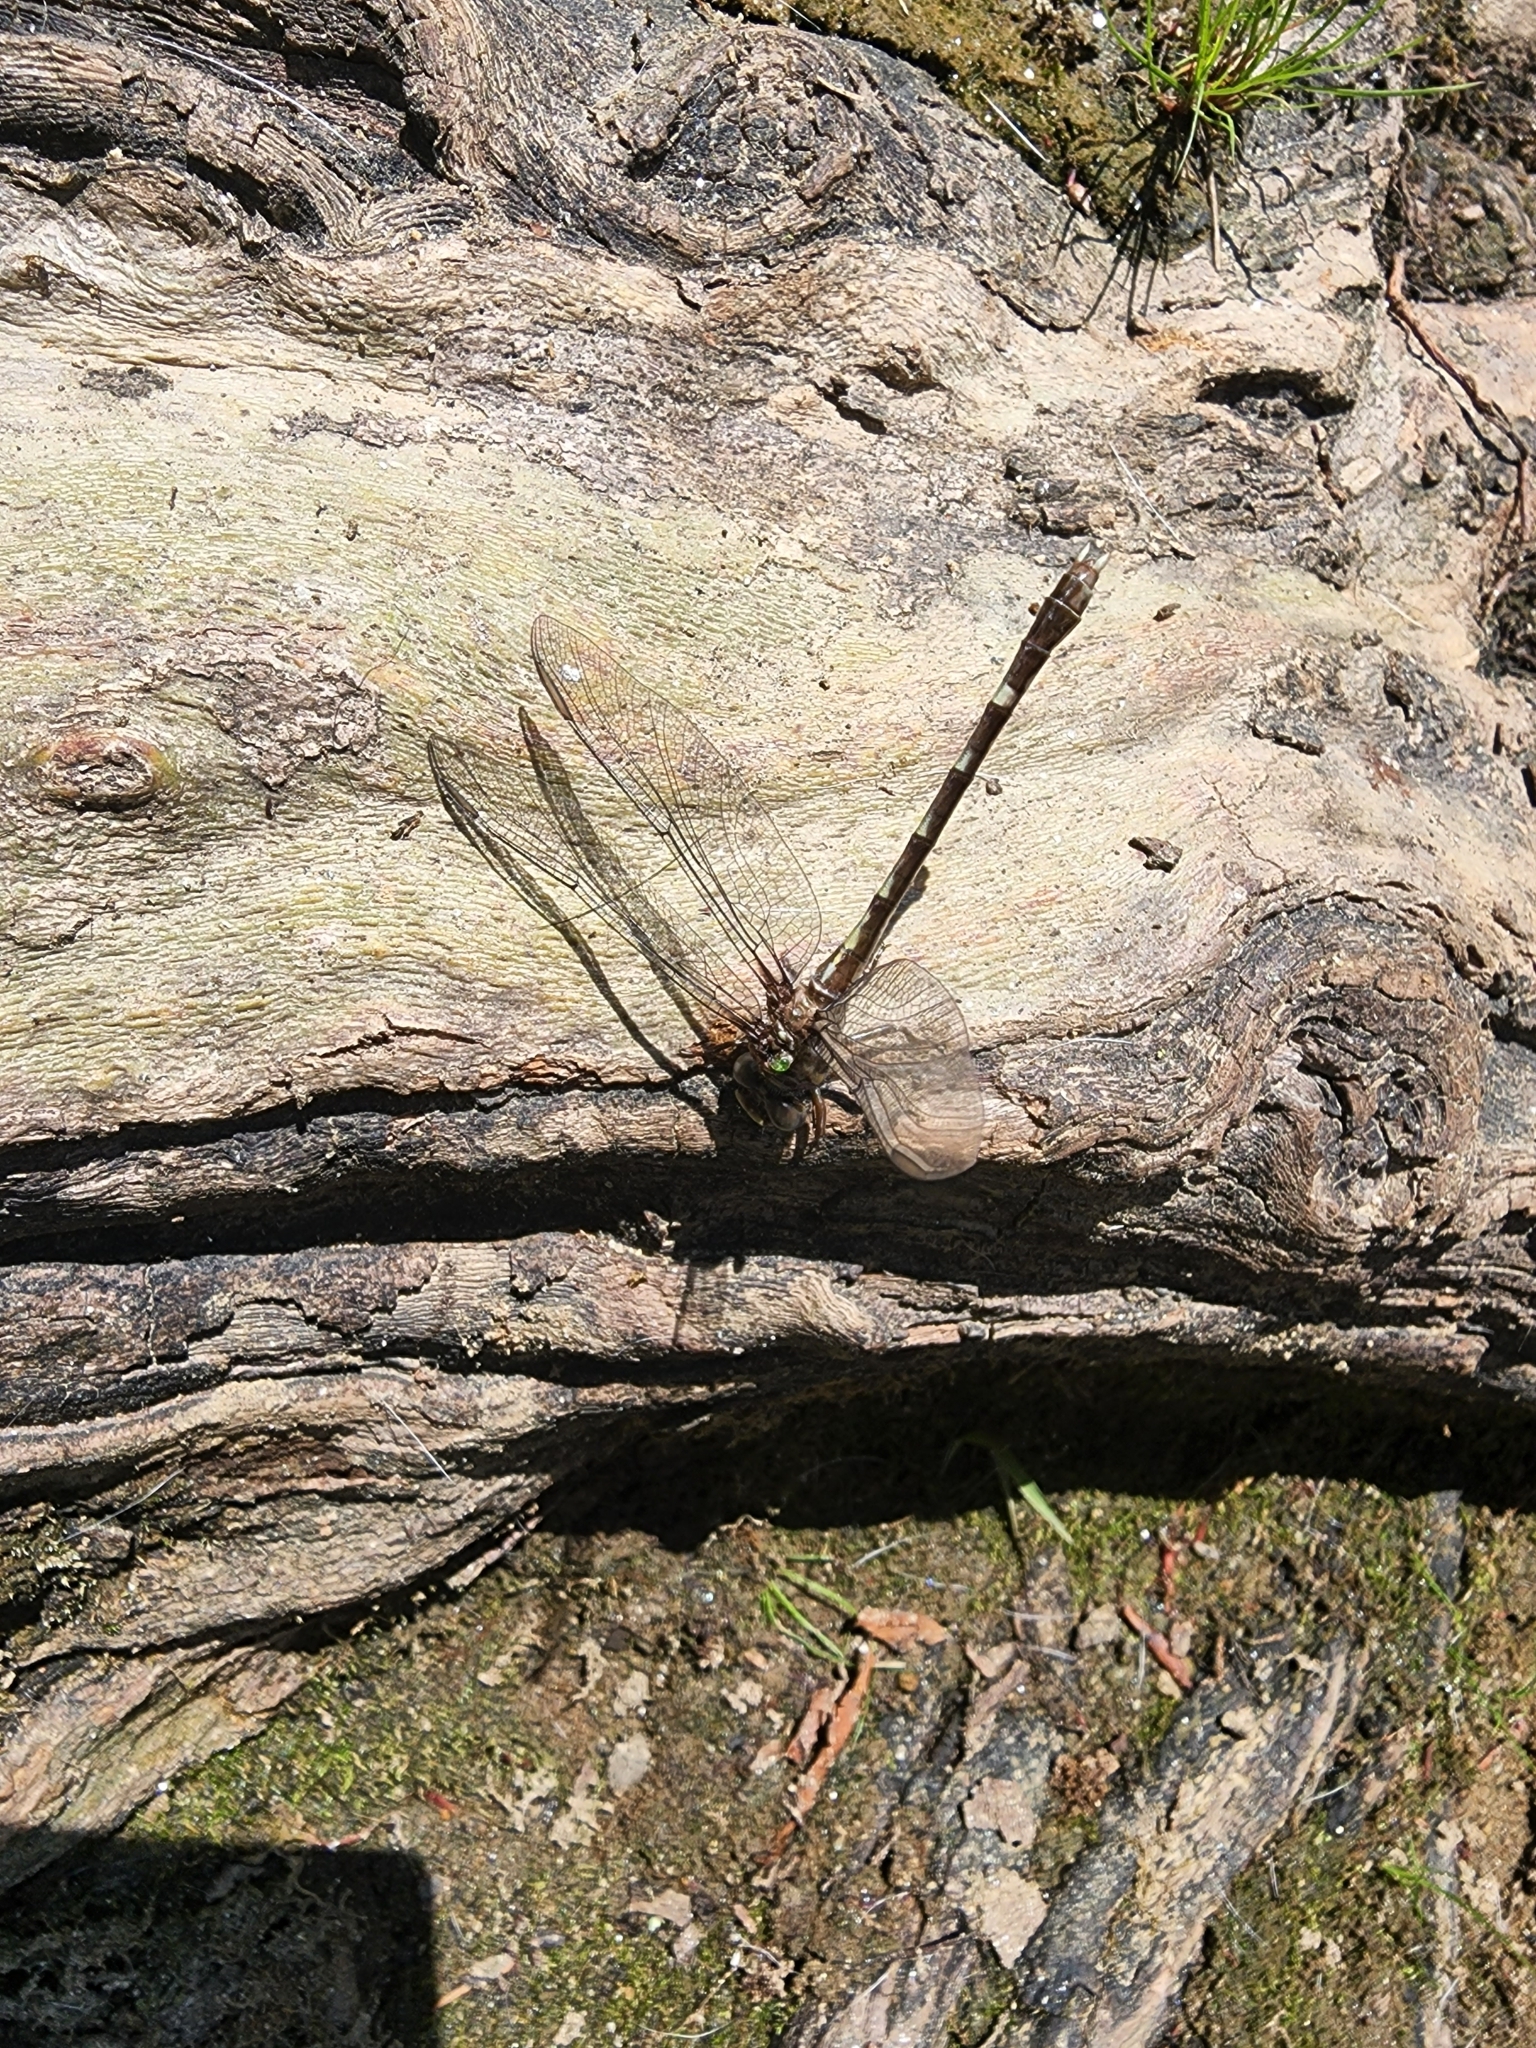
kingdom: Animalia
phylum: Arthropoda
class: Insecta
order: Odonata
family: Gomphidae
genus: Progomphus
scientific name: Progomphus obscurus
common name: Common sanddragon
